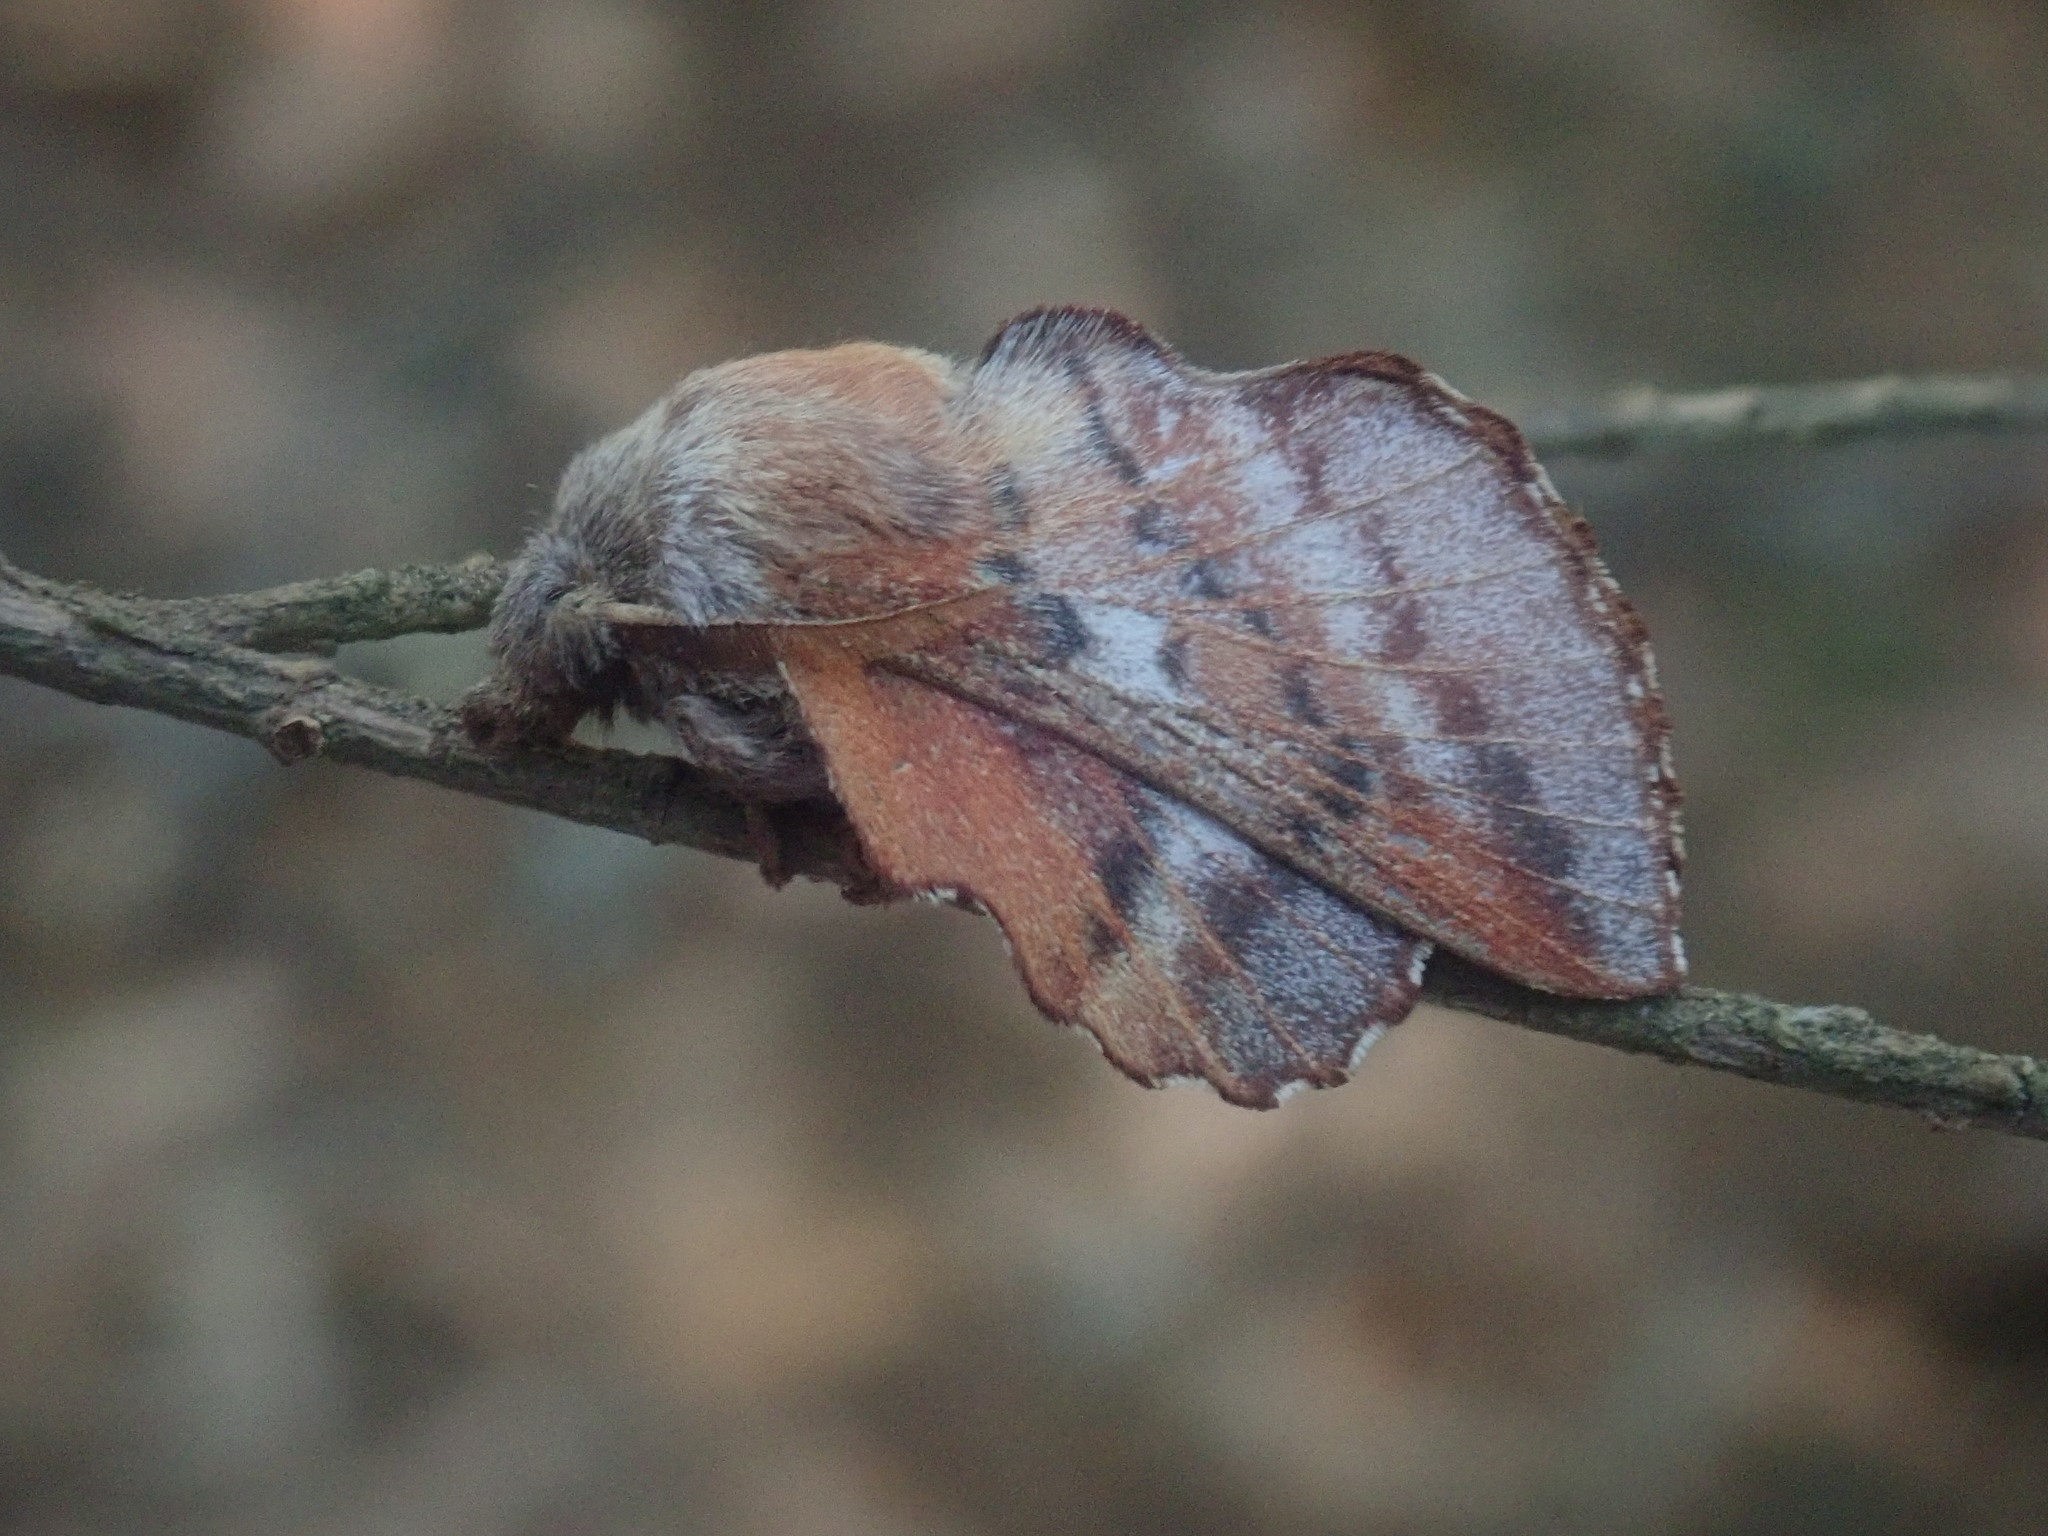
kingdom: Animalia
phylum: Arthropoda
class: Insecta
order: Lepidoptera
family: Lasiocampidae
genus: Phyllodesma
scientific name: Phyllodesma americana
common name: American lappet moth
